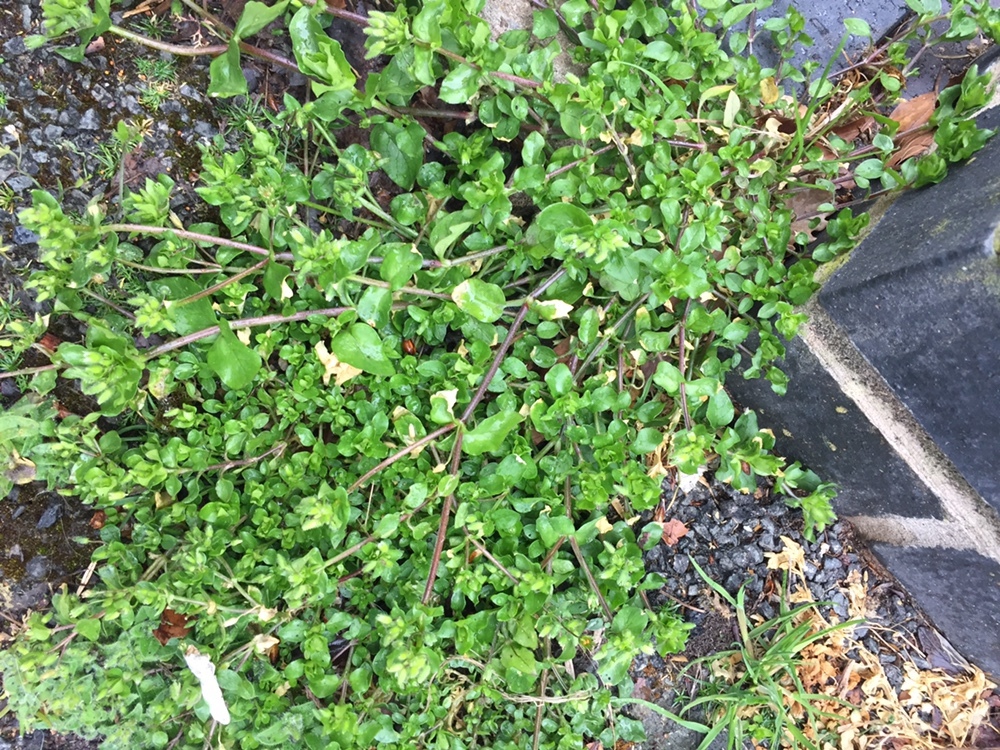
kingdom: Plantae
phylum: Tracheophyta
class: Magnoliopsida
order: Caryophyllales
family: Caryophyllaceae
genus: Stellaria
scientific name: Stellaria media
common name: Common chickweed
